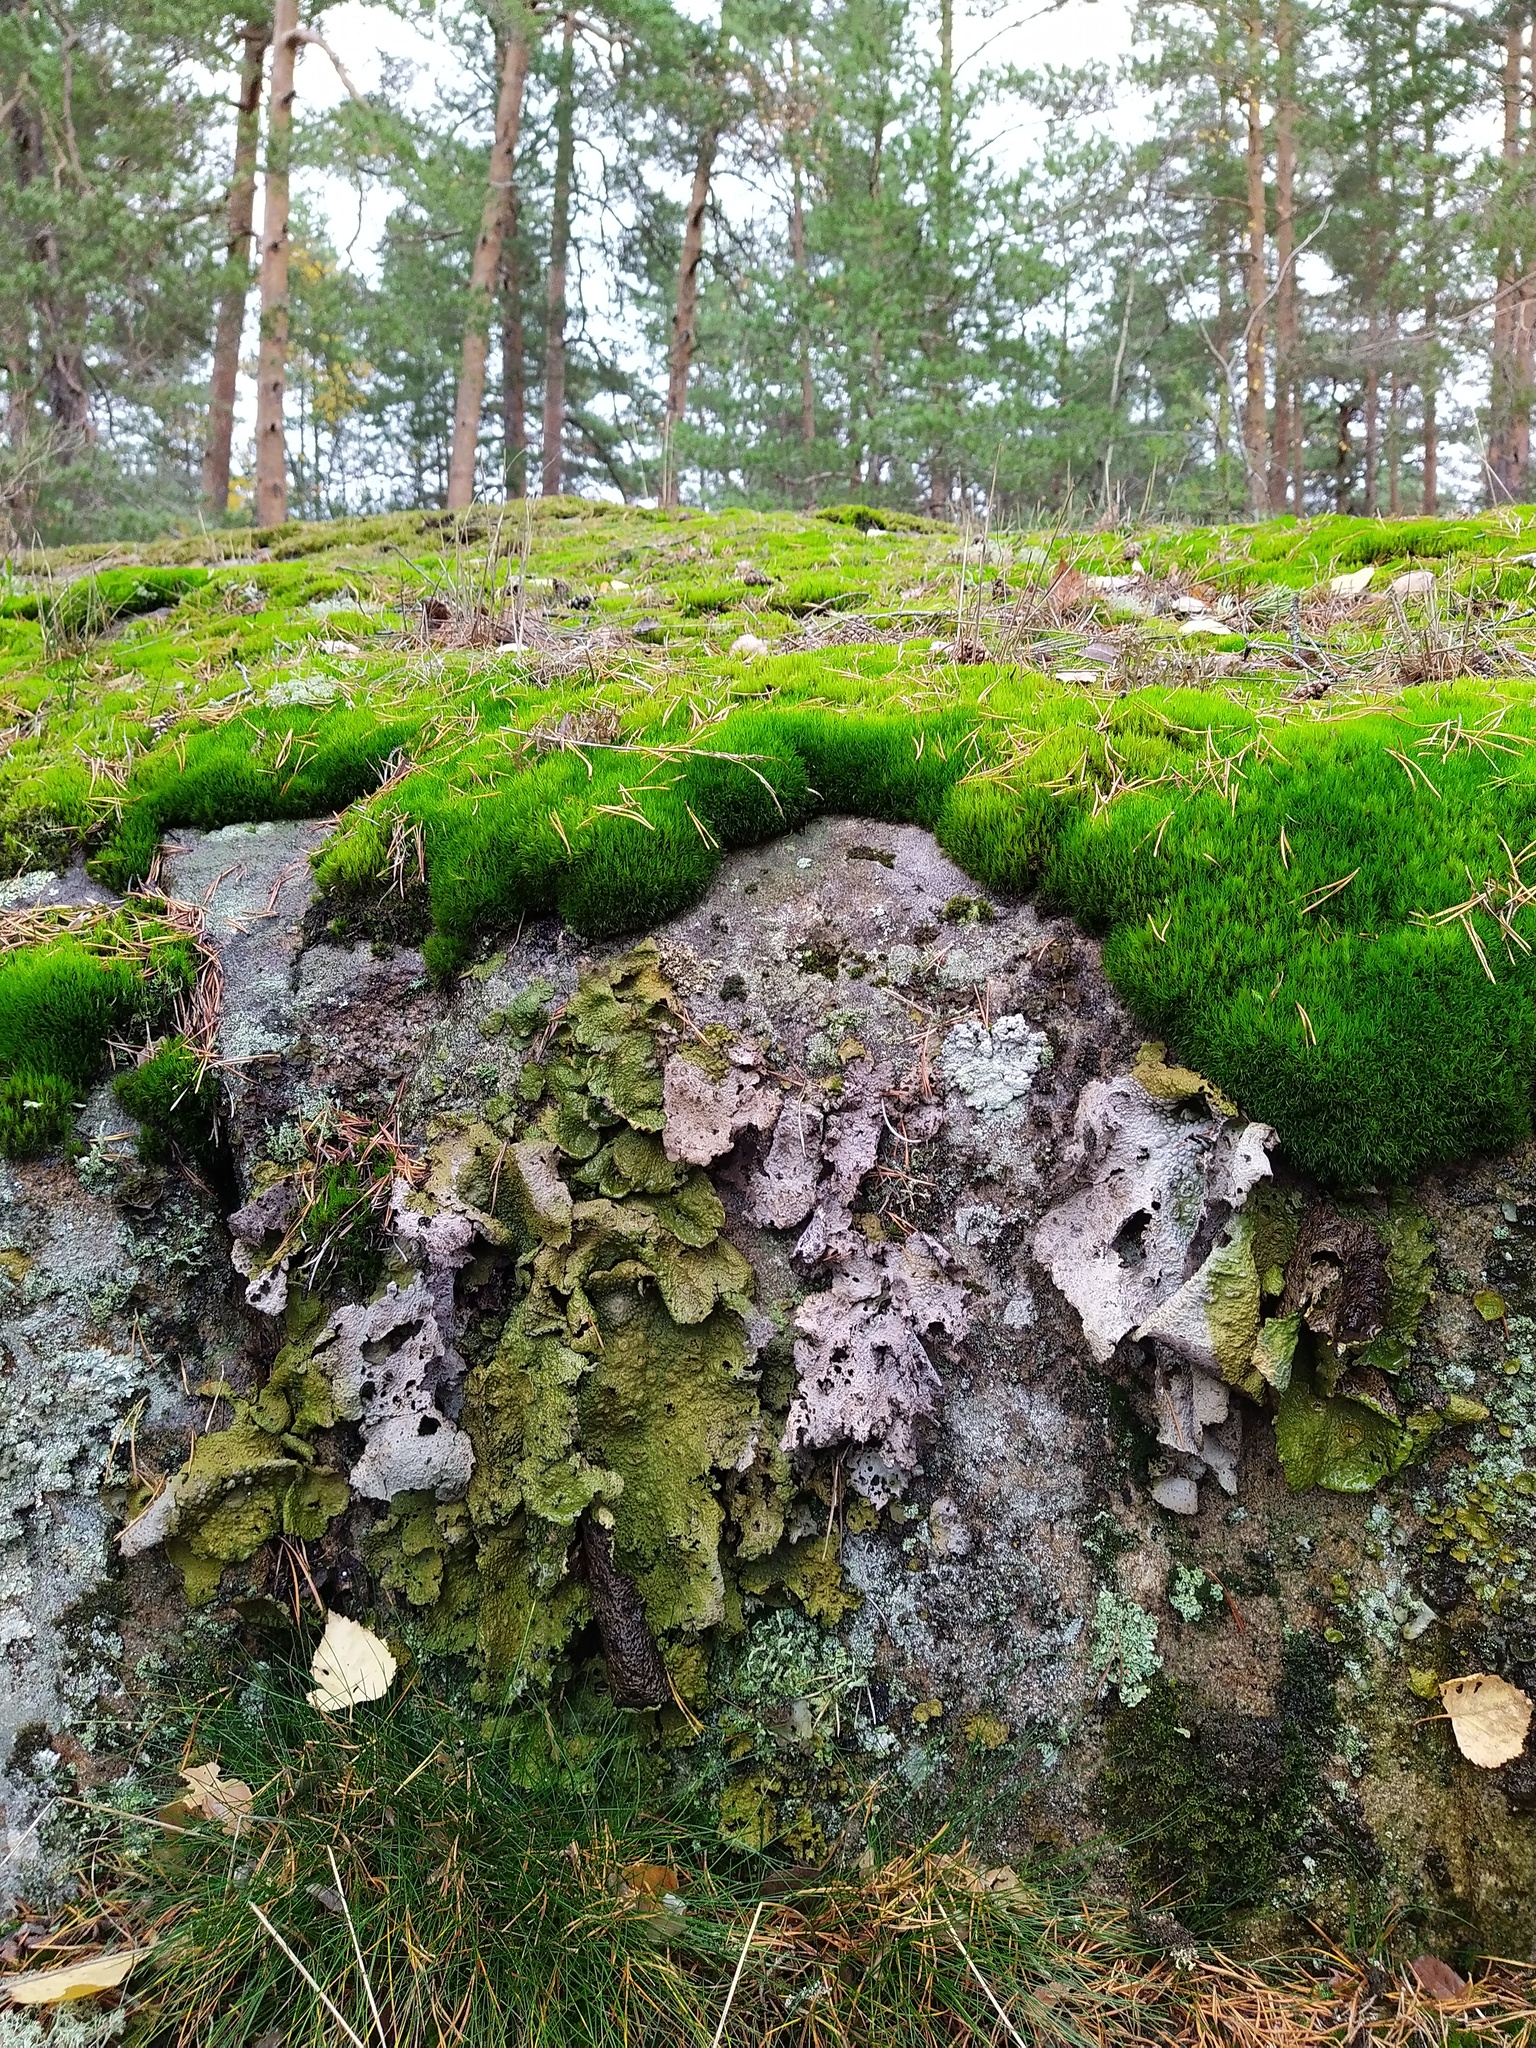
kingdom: Fungi
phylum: Ascomycota
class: Lecanoromycetes
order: Umbilicariales
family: Umbilicariaceae
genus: Lasallia
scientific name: Lasallia pustulata
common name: Blistered toadskin lichen
